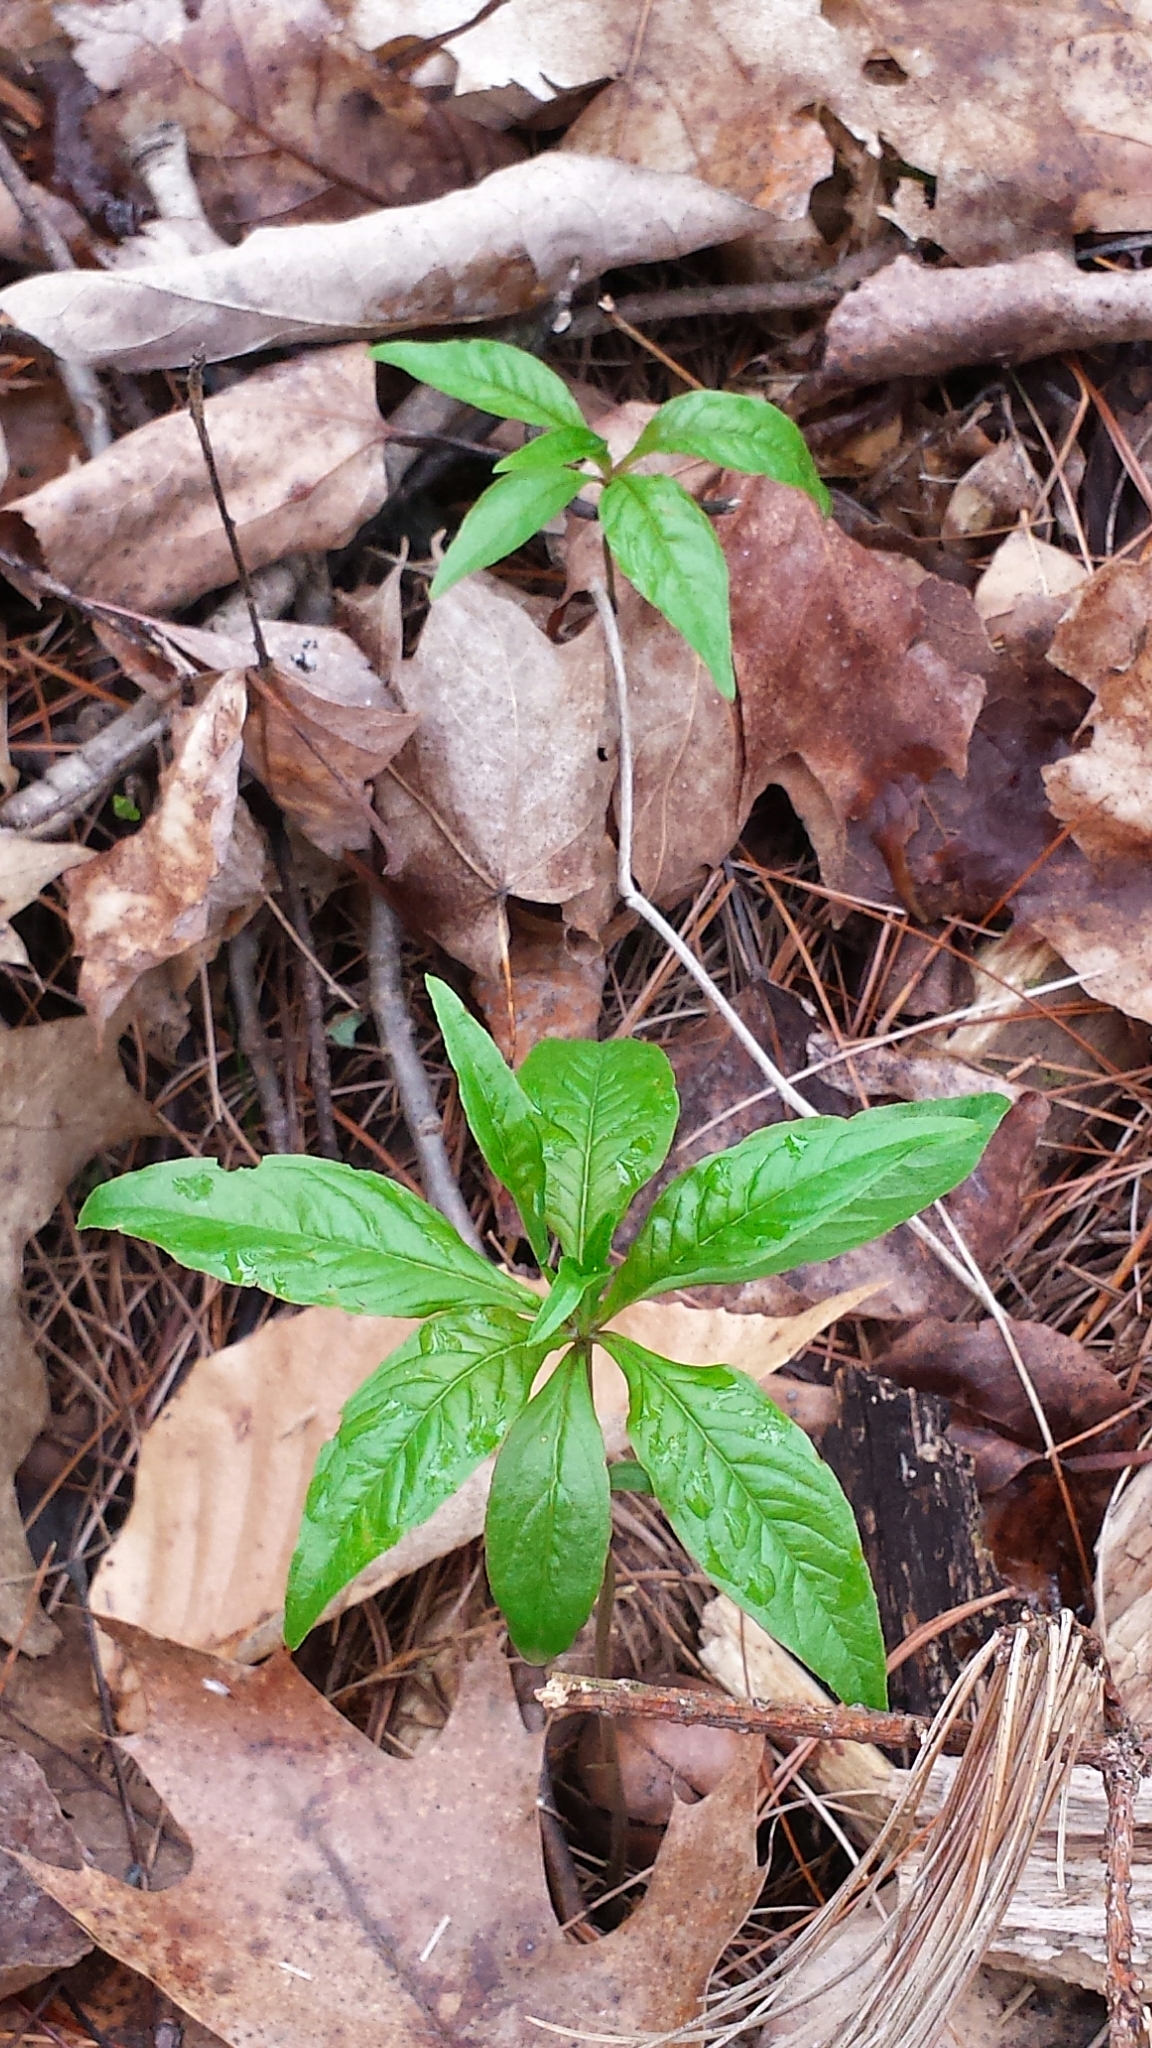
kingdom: Plantae
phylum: Tracheophyta
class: Magnoliopsida
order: Ericales
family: Primulaceae
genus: Lysimachia
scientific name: Lysimachia borealis
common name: American starflower
